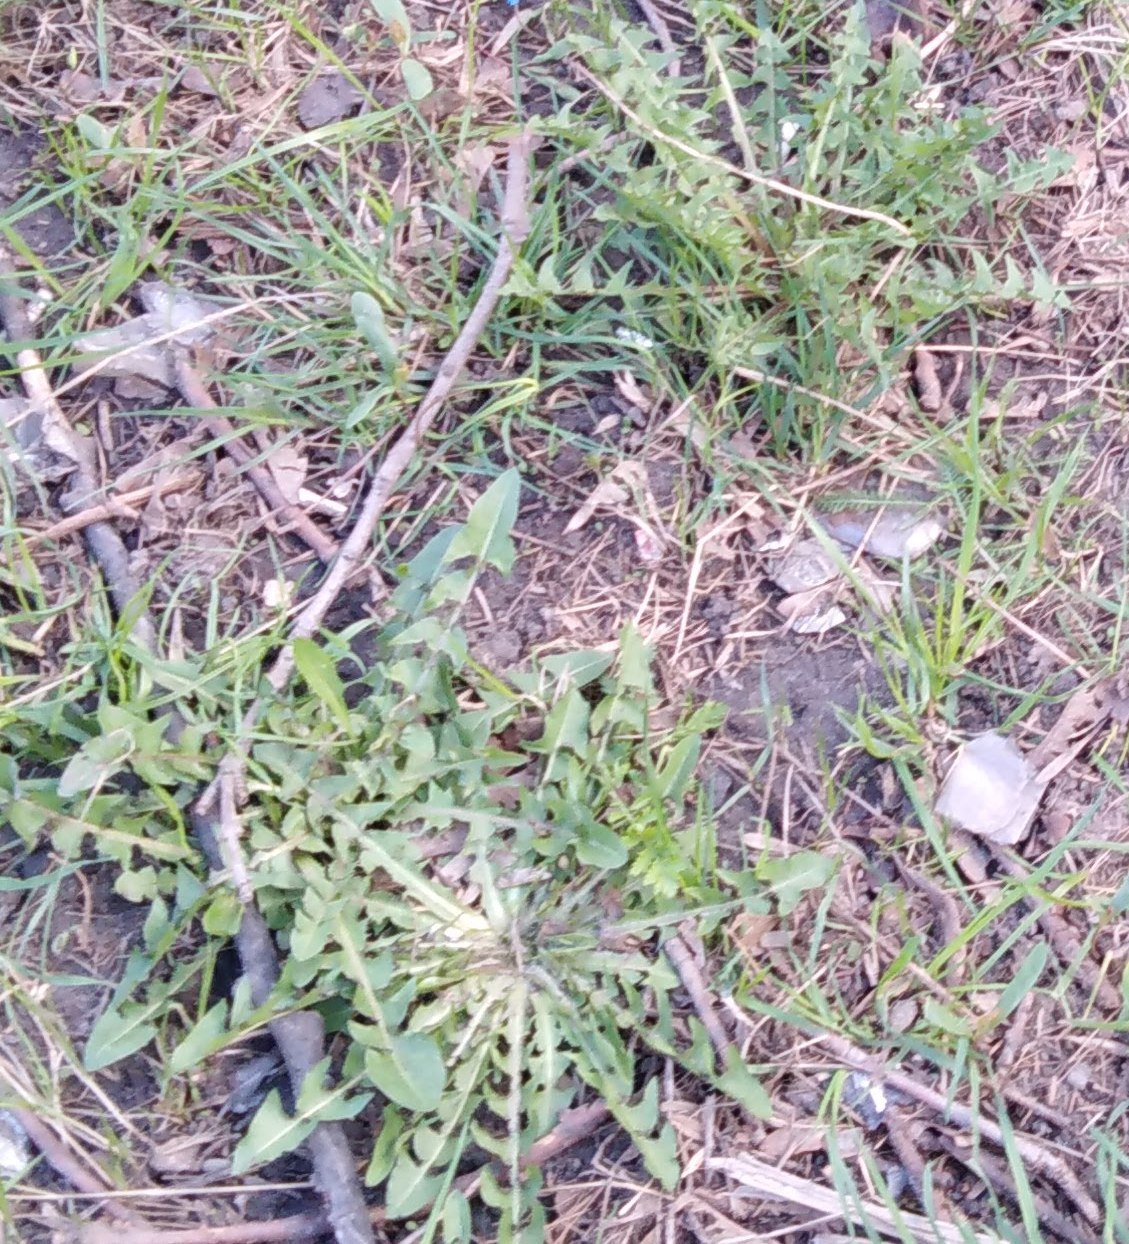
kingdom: Plantae
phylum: Tracheophyta
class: Magnoliopsida
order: Asterales
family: Asteraceae
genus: Taraxacum
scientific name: Taraxacum officinale
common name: Common dandelion
